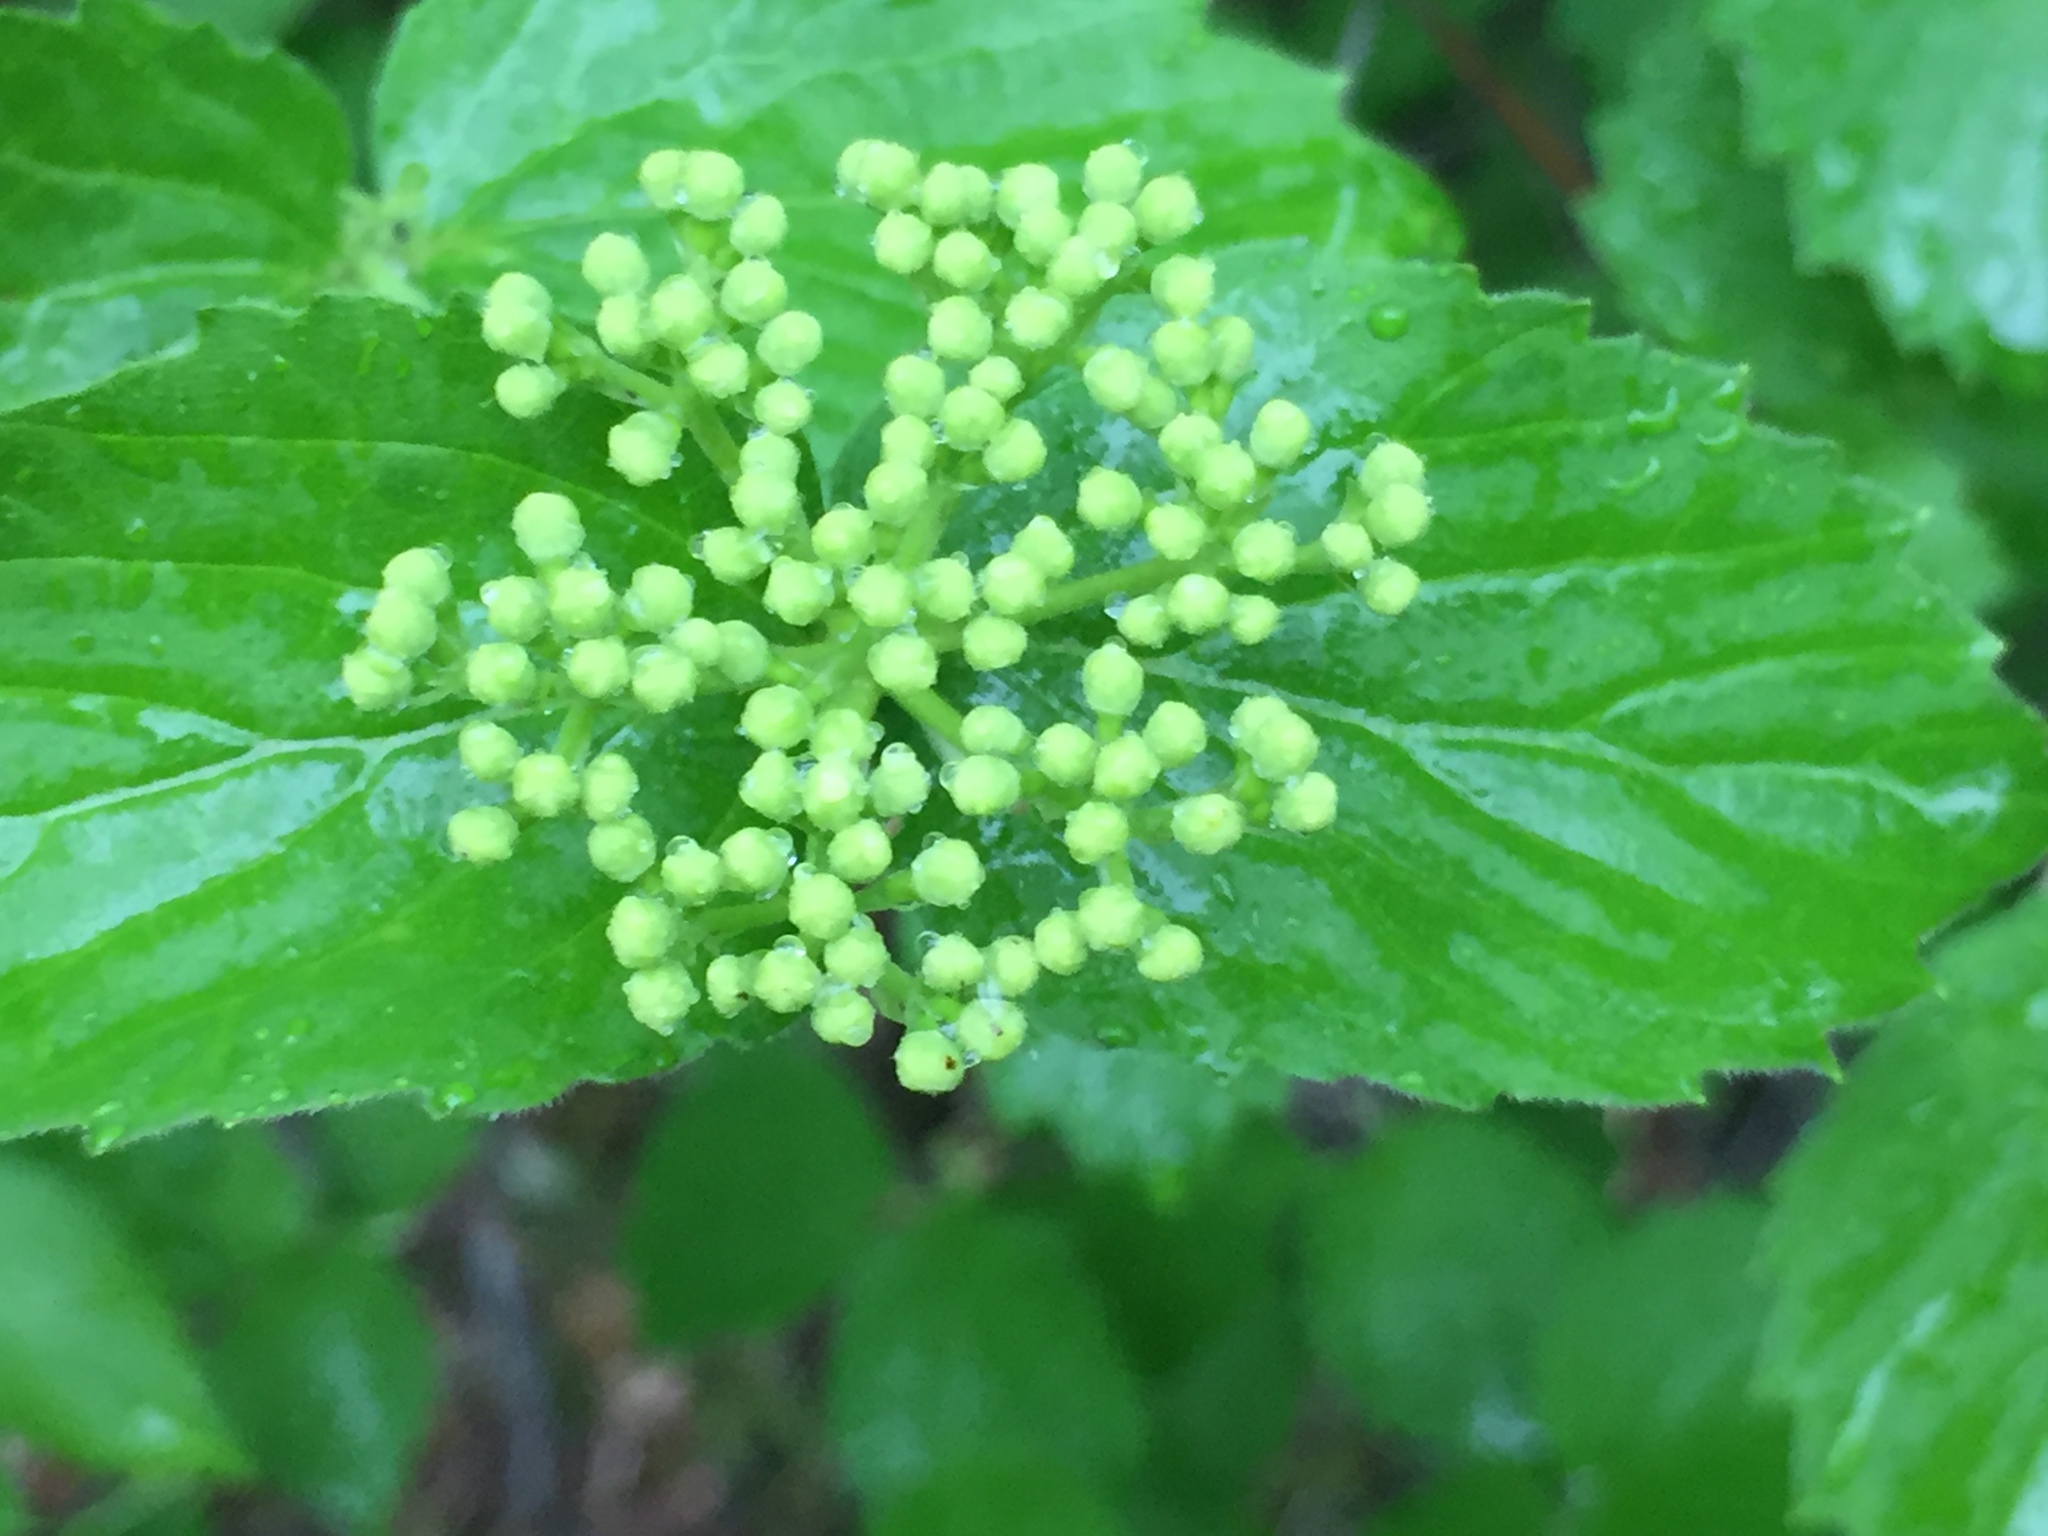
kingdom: Plantae
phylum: Tracheophyta
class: Magnoliopsida
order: Dipsacales
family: Viburnaceae
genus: Viburnum
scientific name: Viburnum rafinesqueanum
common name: Downy arrow-wood
